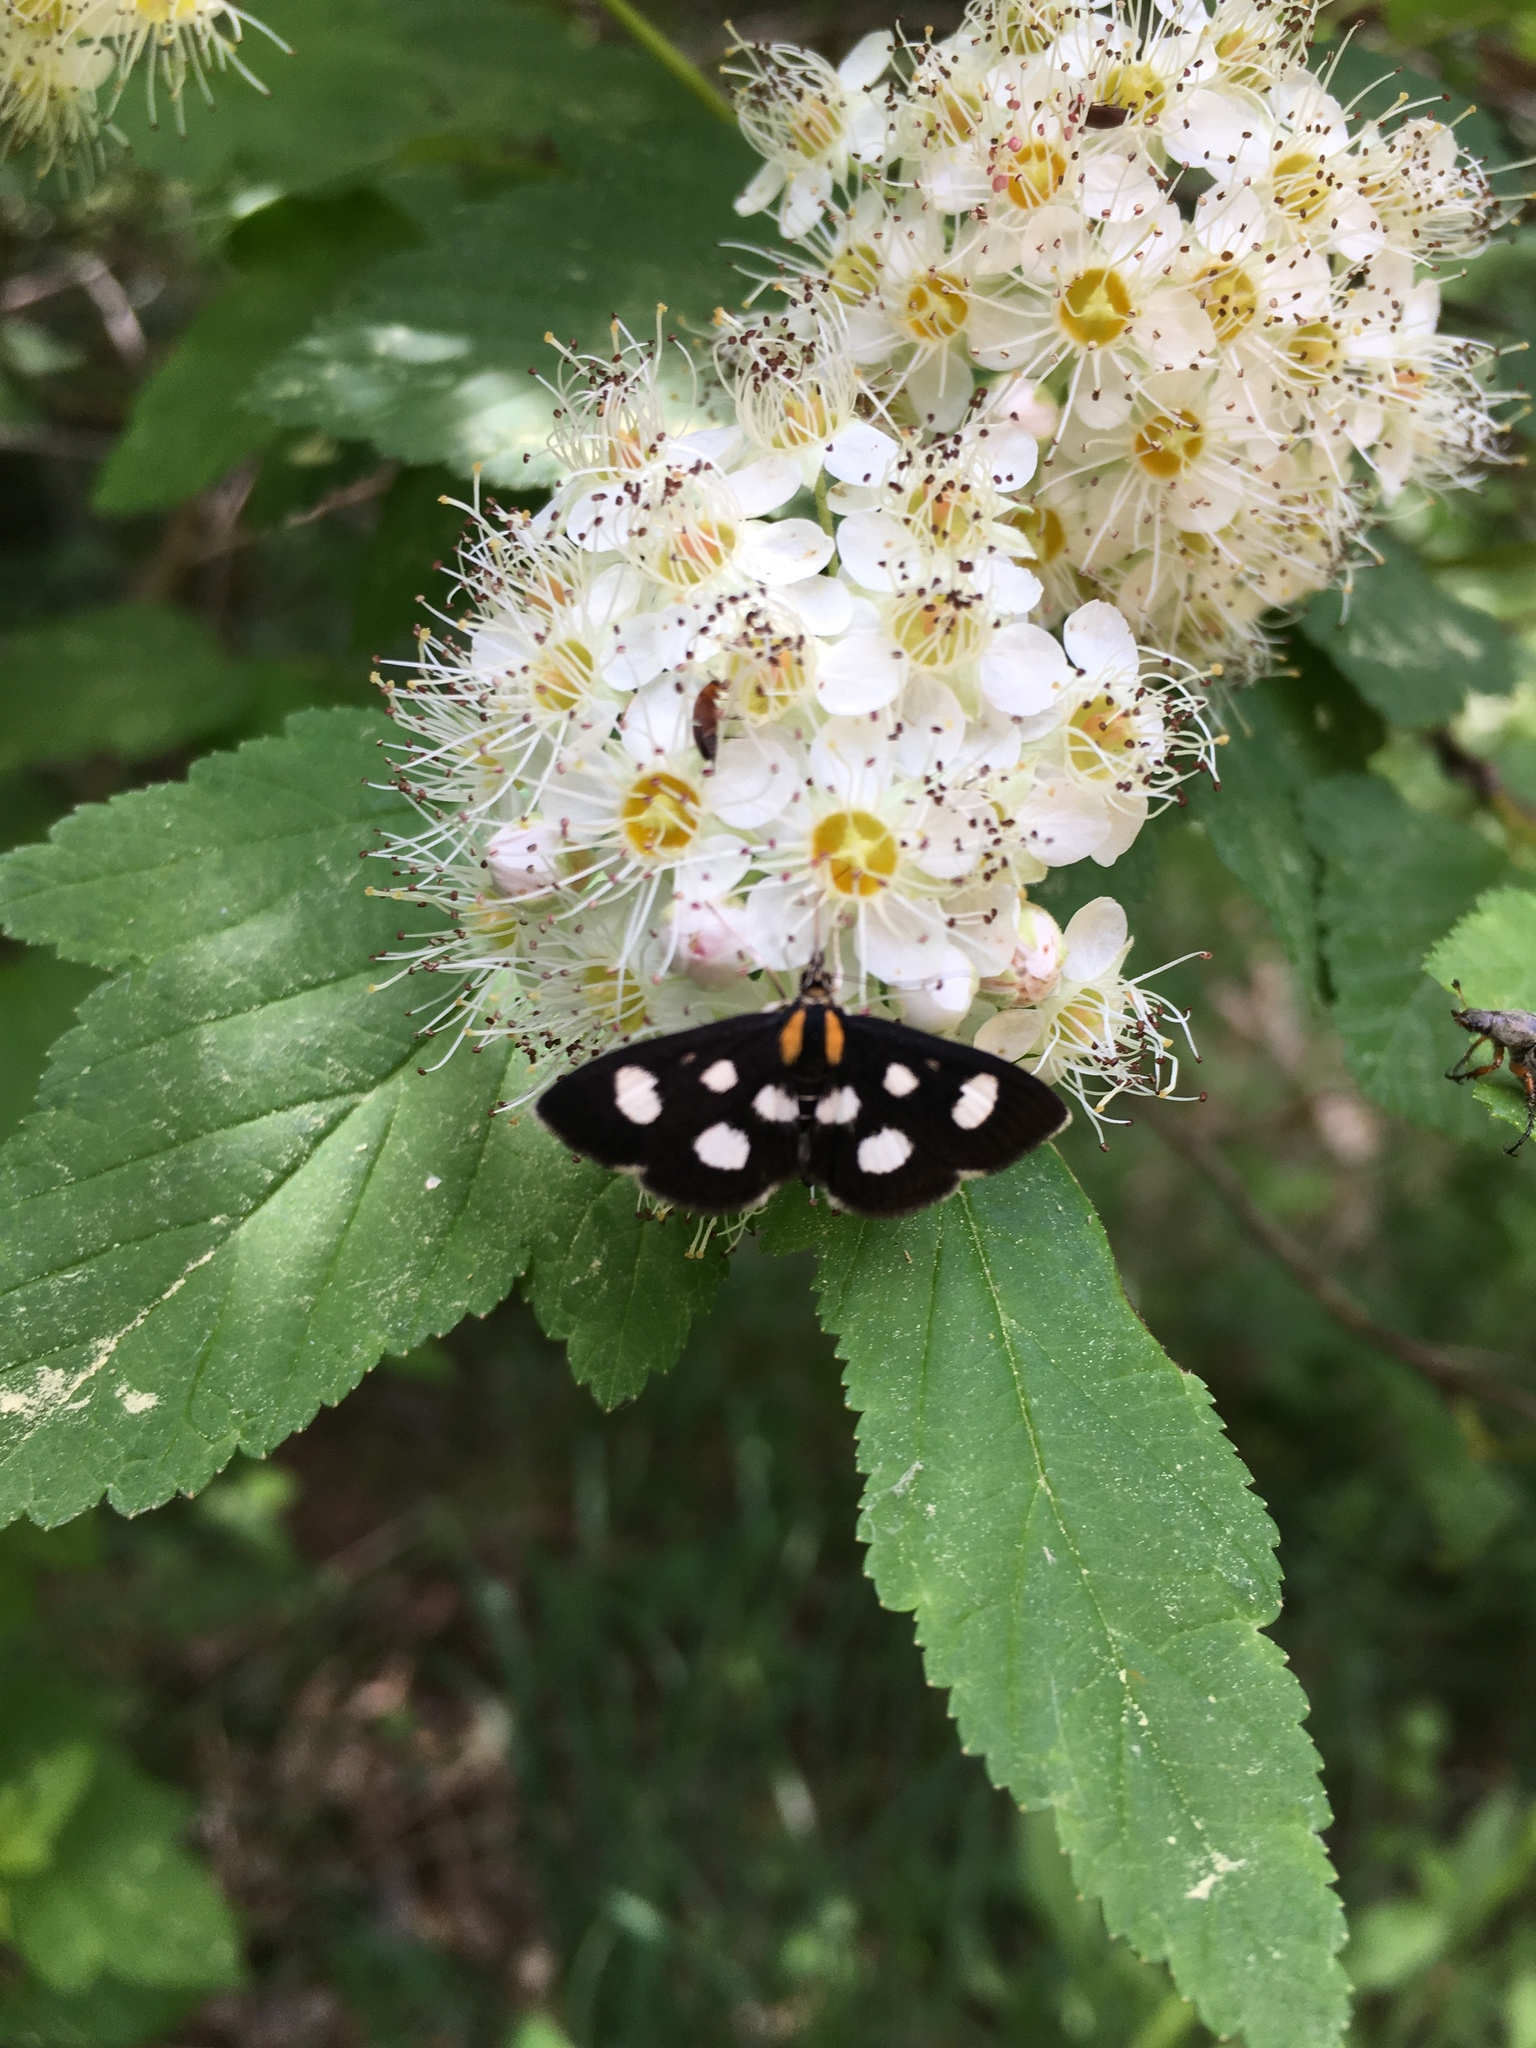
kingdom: Animalia
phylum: Arthropoda
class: Insecta
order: Lepidoptera
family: Crambidae
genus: Anania
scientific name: Anania funebris
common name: White-spotted sable moth
